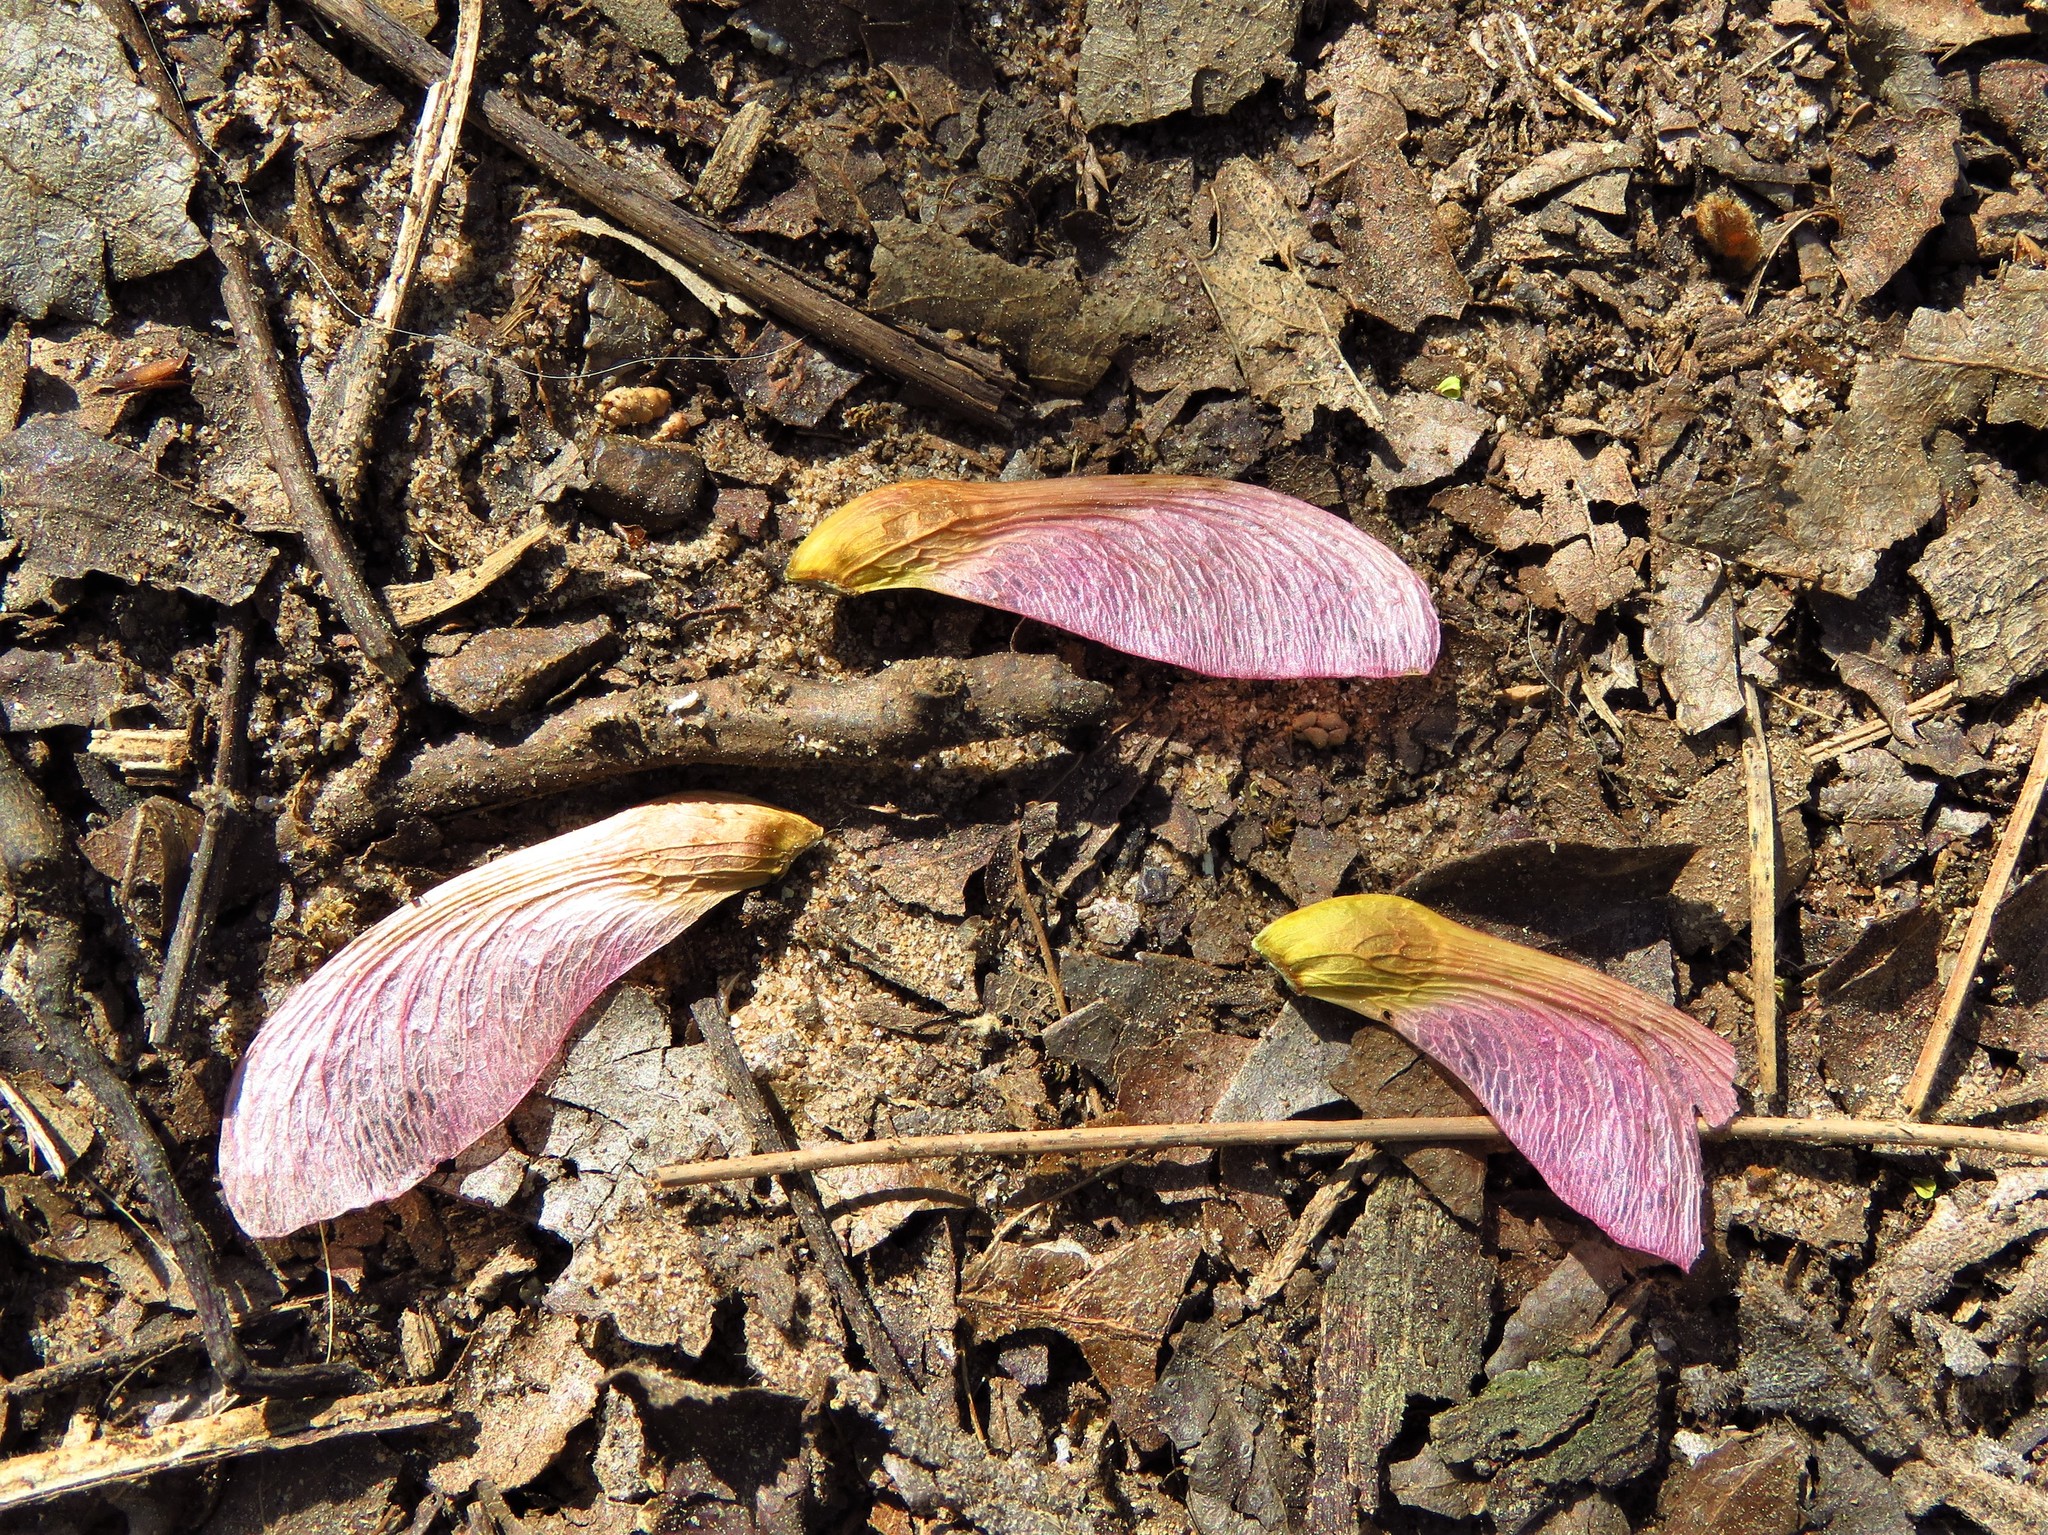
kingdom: Plantae
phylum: Tracheophyta
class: Magnoliopsida
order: Sapindales
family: Sapindaceae
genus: Acer
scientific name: Acer rubrum
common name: Red maple
